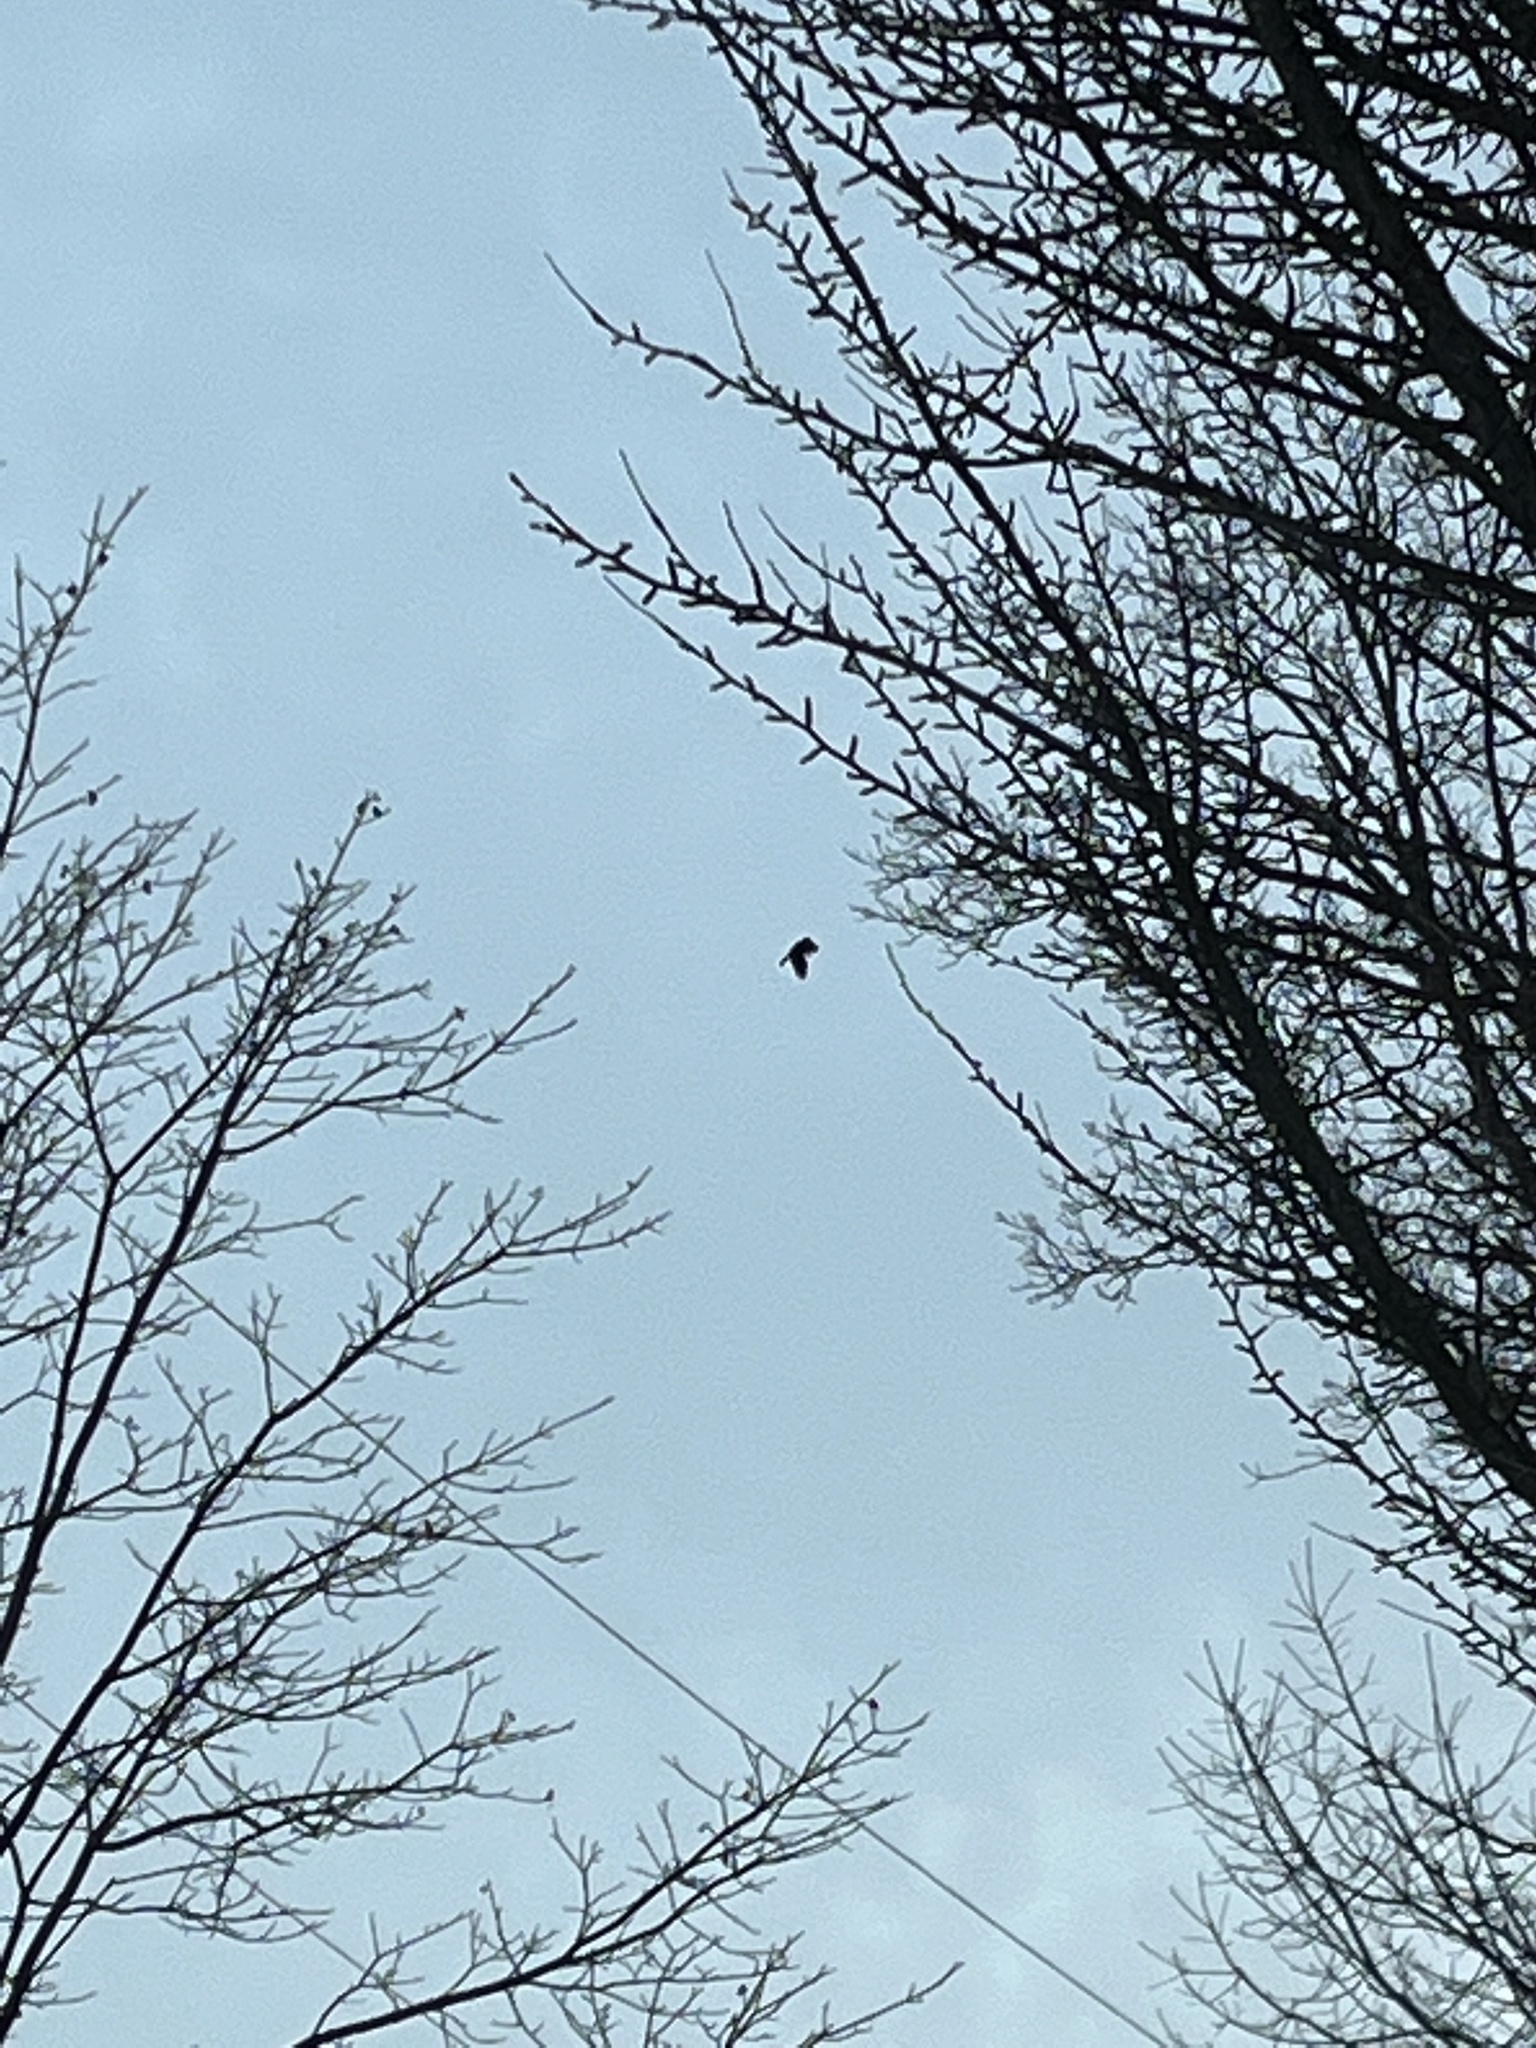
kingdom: Animalia
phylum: Chordata
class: Aves
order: Passeriformes
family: Corvidae
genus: Corvus
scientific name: Corvus brachyrhynchos
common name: American crow
